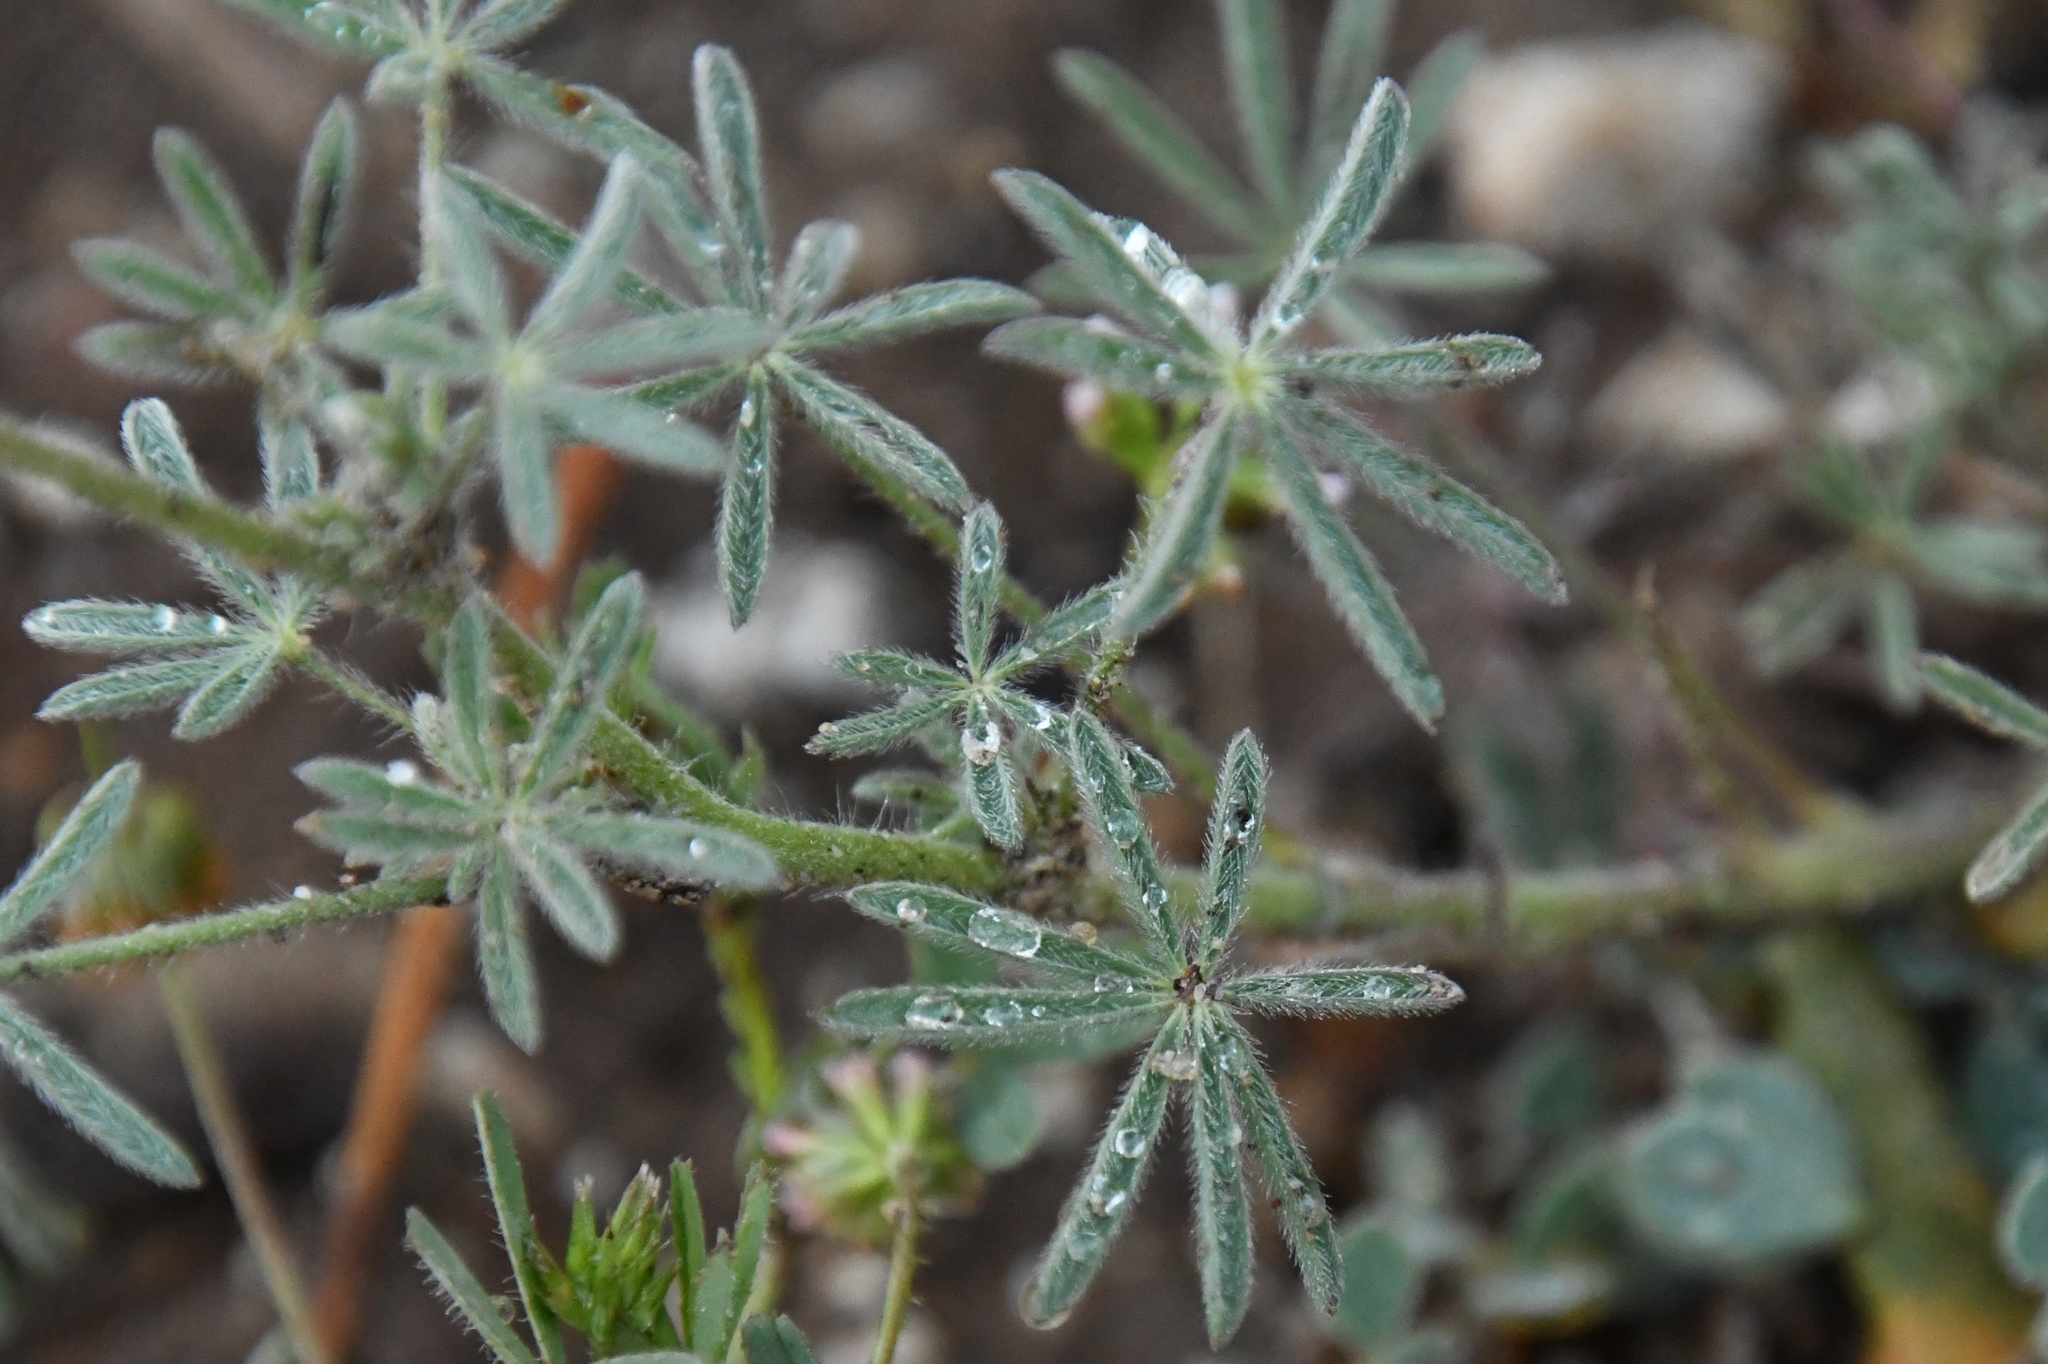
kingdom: Plantae
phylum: Tracheophyta
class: Magnoliopsida
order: Fabales
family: Fabaceae
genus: Lupinus
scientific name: Lupinus bicolor
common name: Miniature lupine
